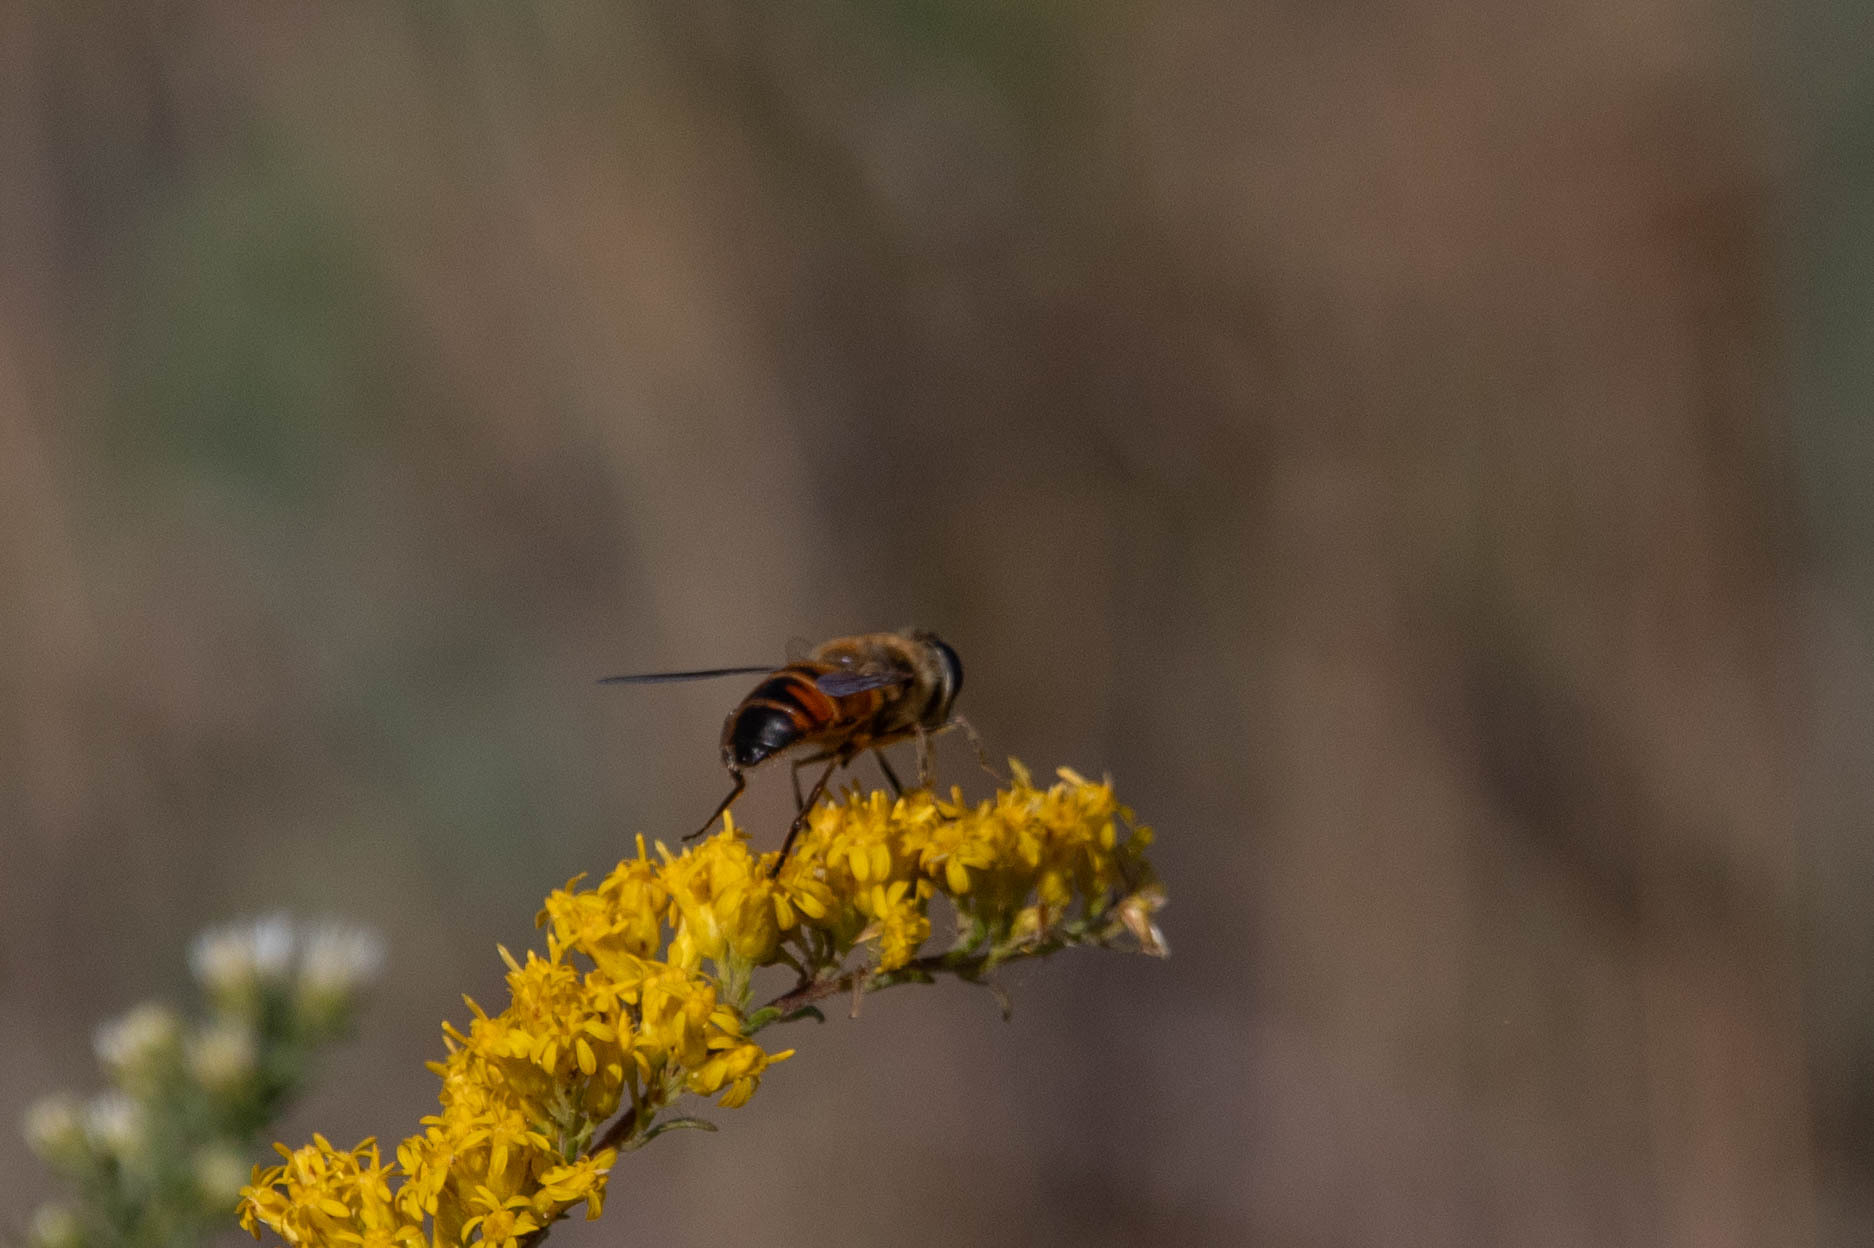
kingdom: Animalia
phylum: Arthropoda
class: Insecta
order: Diptera
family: Syrphidae
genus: Eristalis
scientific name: Eristalis tenax
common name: Drone fly
